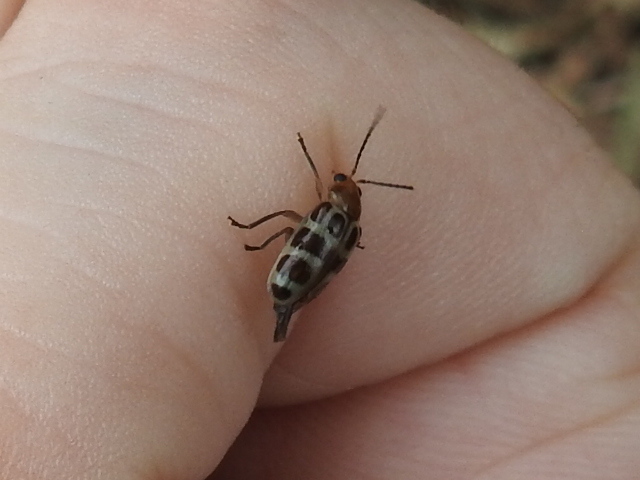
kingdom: Animalia
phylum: Arthropoda
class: Insecta
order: Coleoptera
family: Chrysomelidae
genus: Exora
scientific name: Exora olivacea
